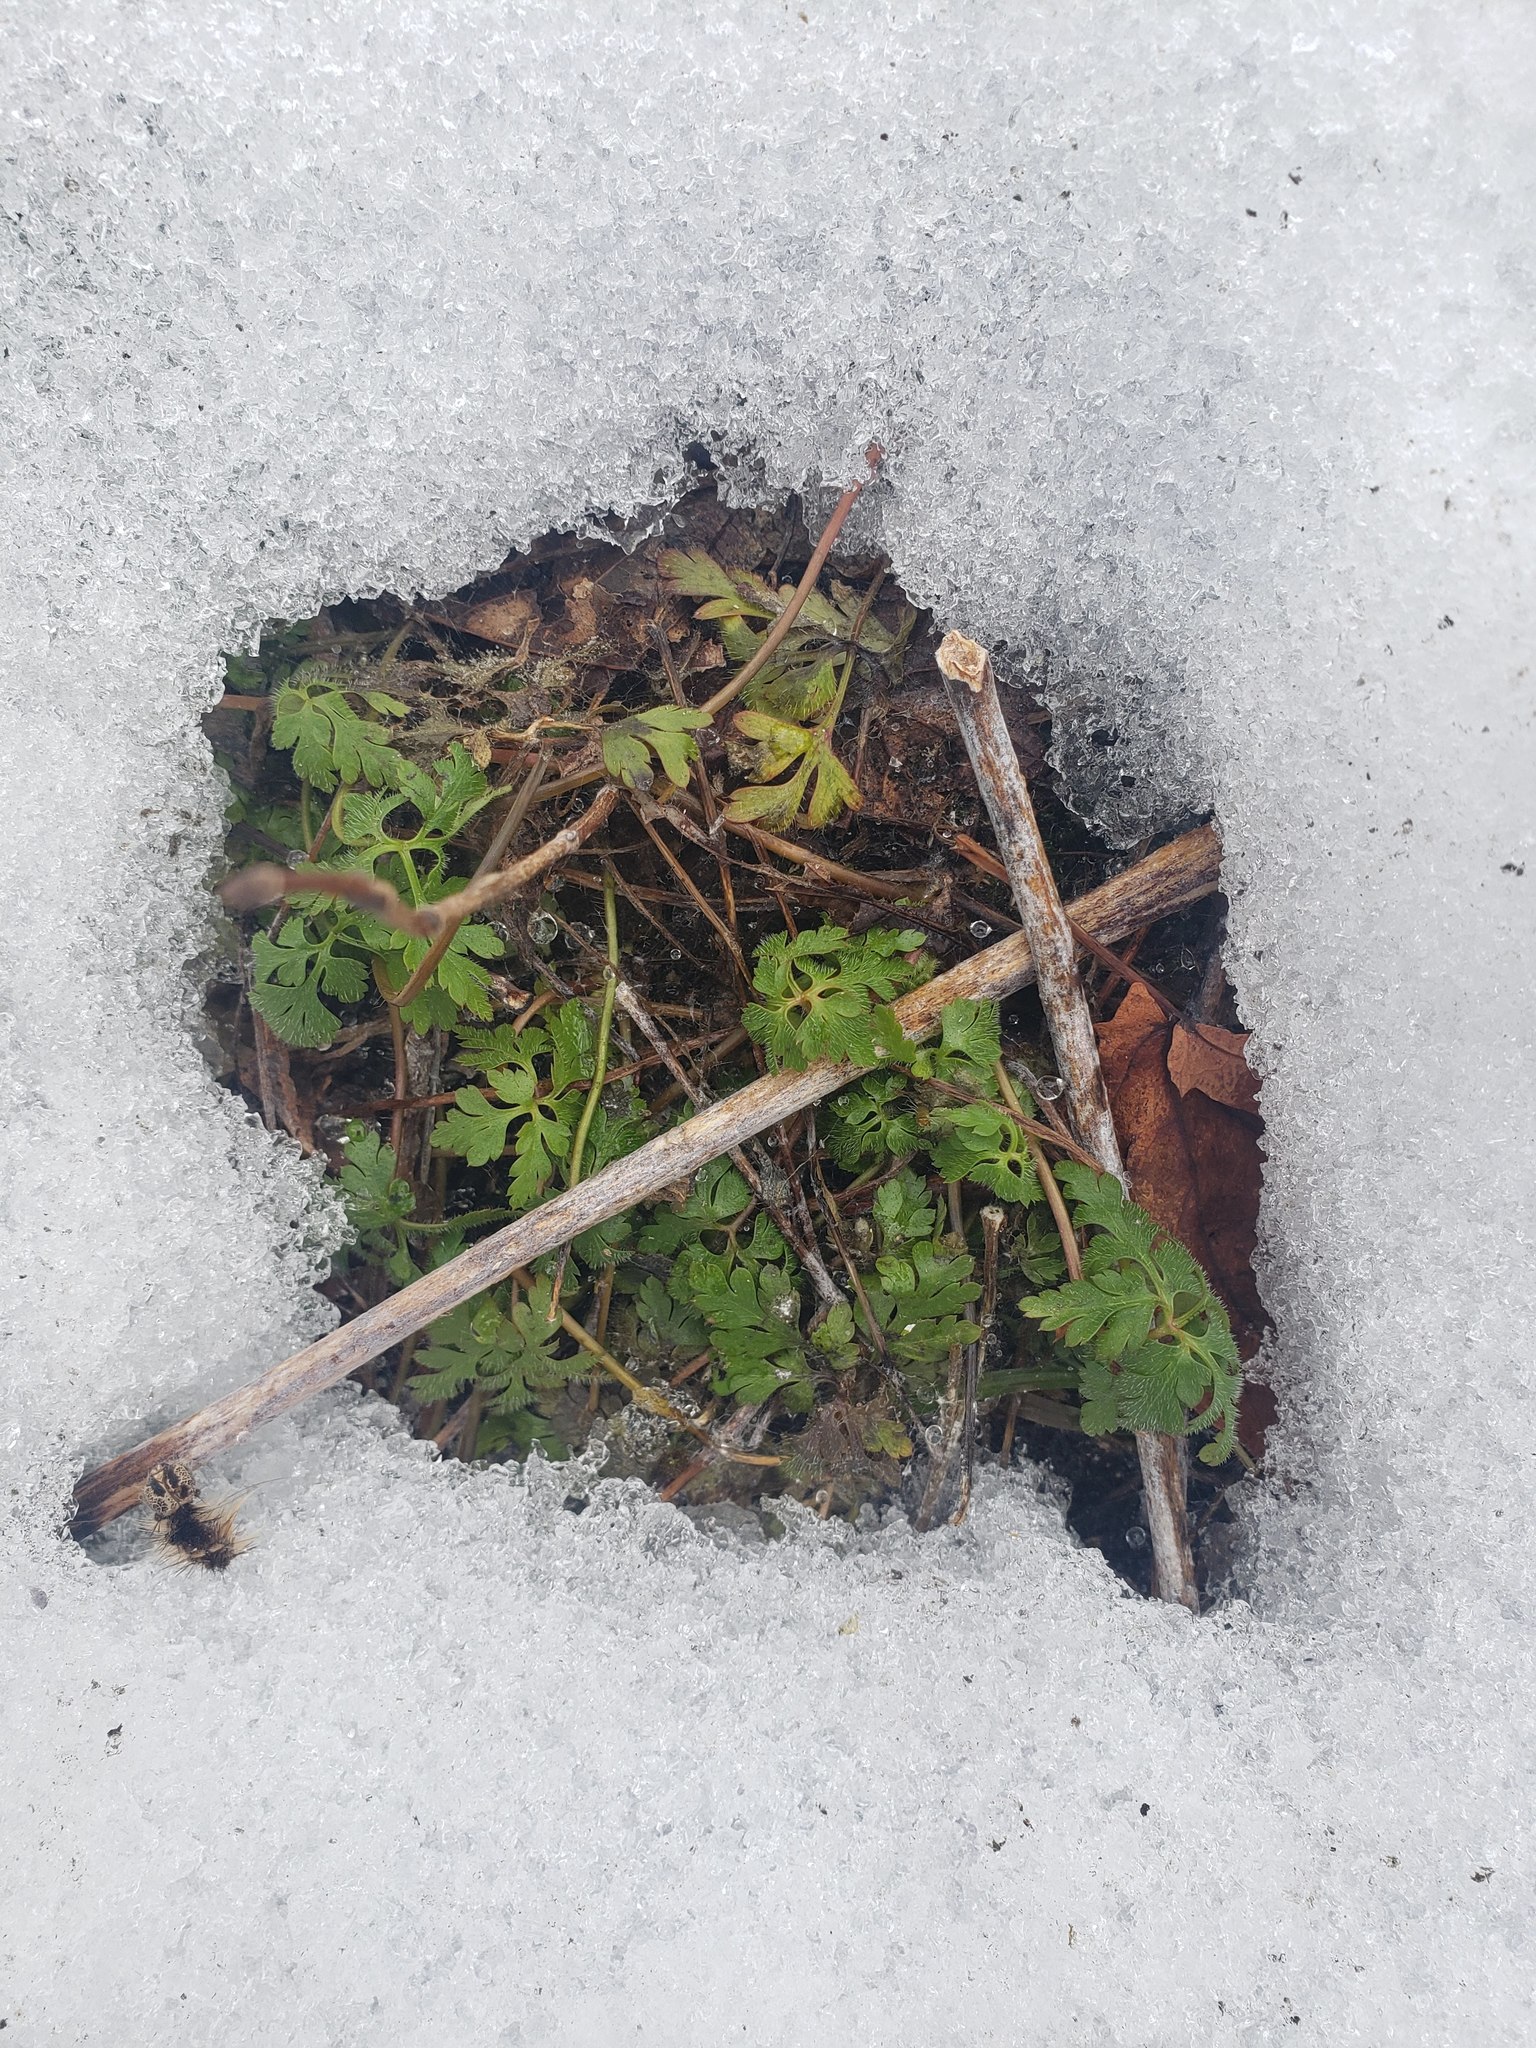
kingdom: Plantae
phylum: Tracheophyta
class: Magnoliopsida
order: Geraniales
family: Geraniaceae
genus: Geranium
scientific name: Geranium robertianum
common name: Herb-robert
